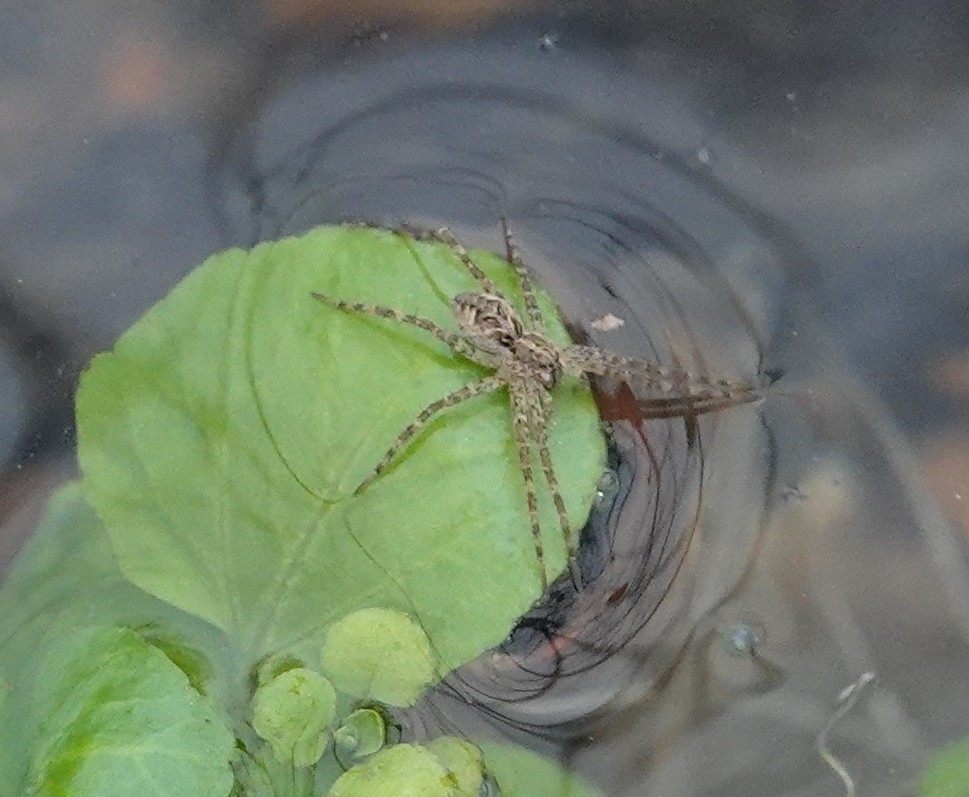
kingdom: Animalia
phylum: Arthropoda
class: Arachnida
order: Araneae
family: Pisauridae
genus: Dolomedes
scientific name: Dolomedes scriptus
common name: Striped fishing spider
